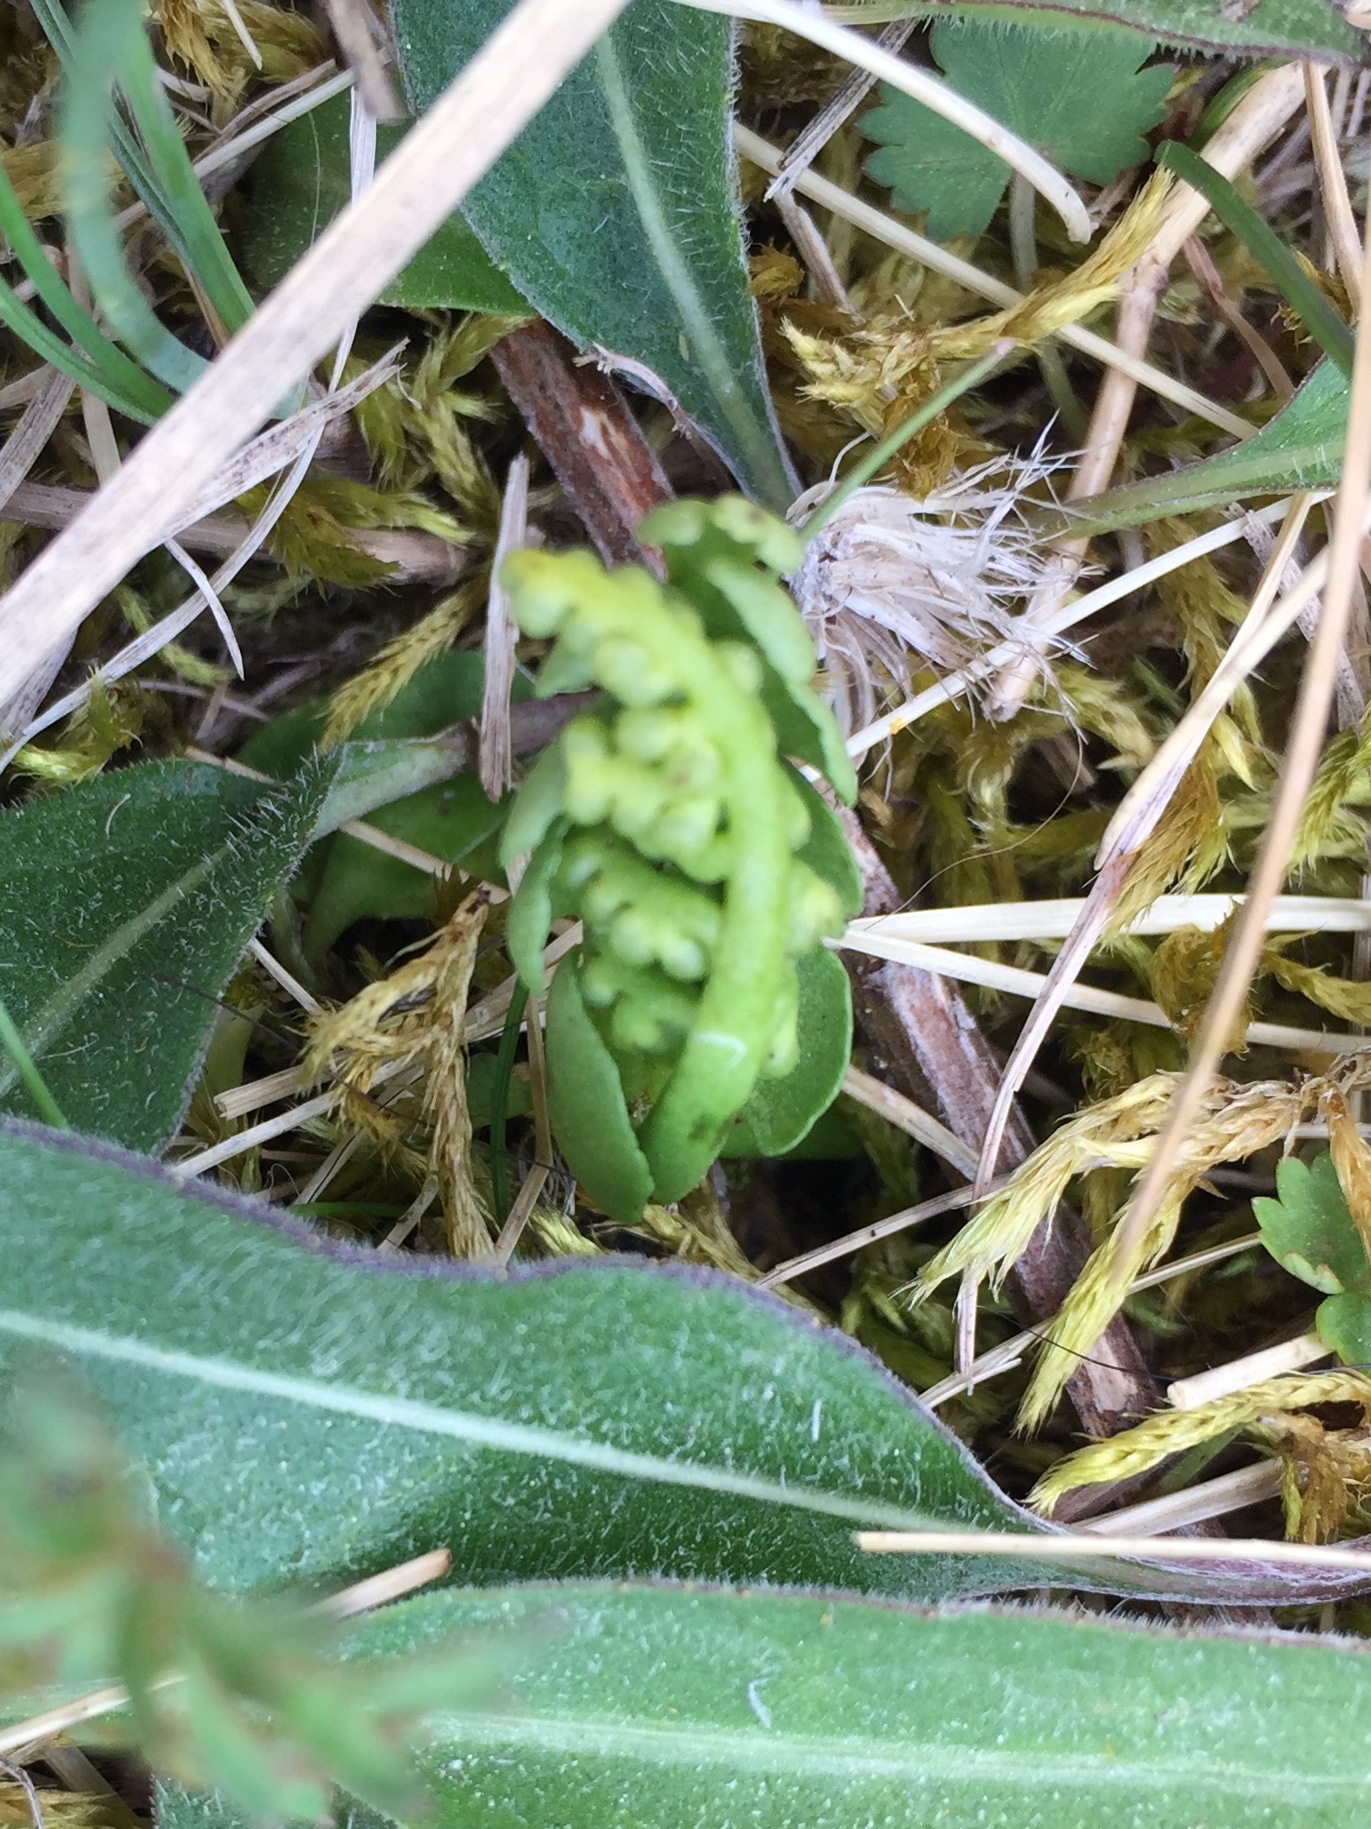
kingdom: Plantae
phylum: Tracheophyta
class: Polypodiopsida
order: Ophioglossales
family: Ophioglossaceae
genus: Botrychium
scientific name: Botrychium lunaria
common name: Moonwort
